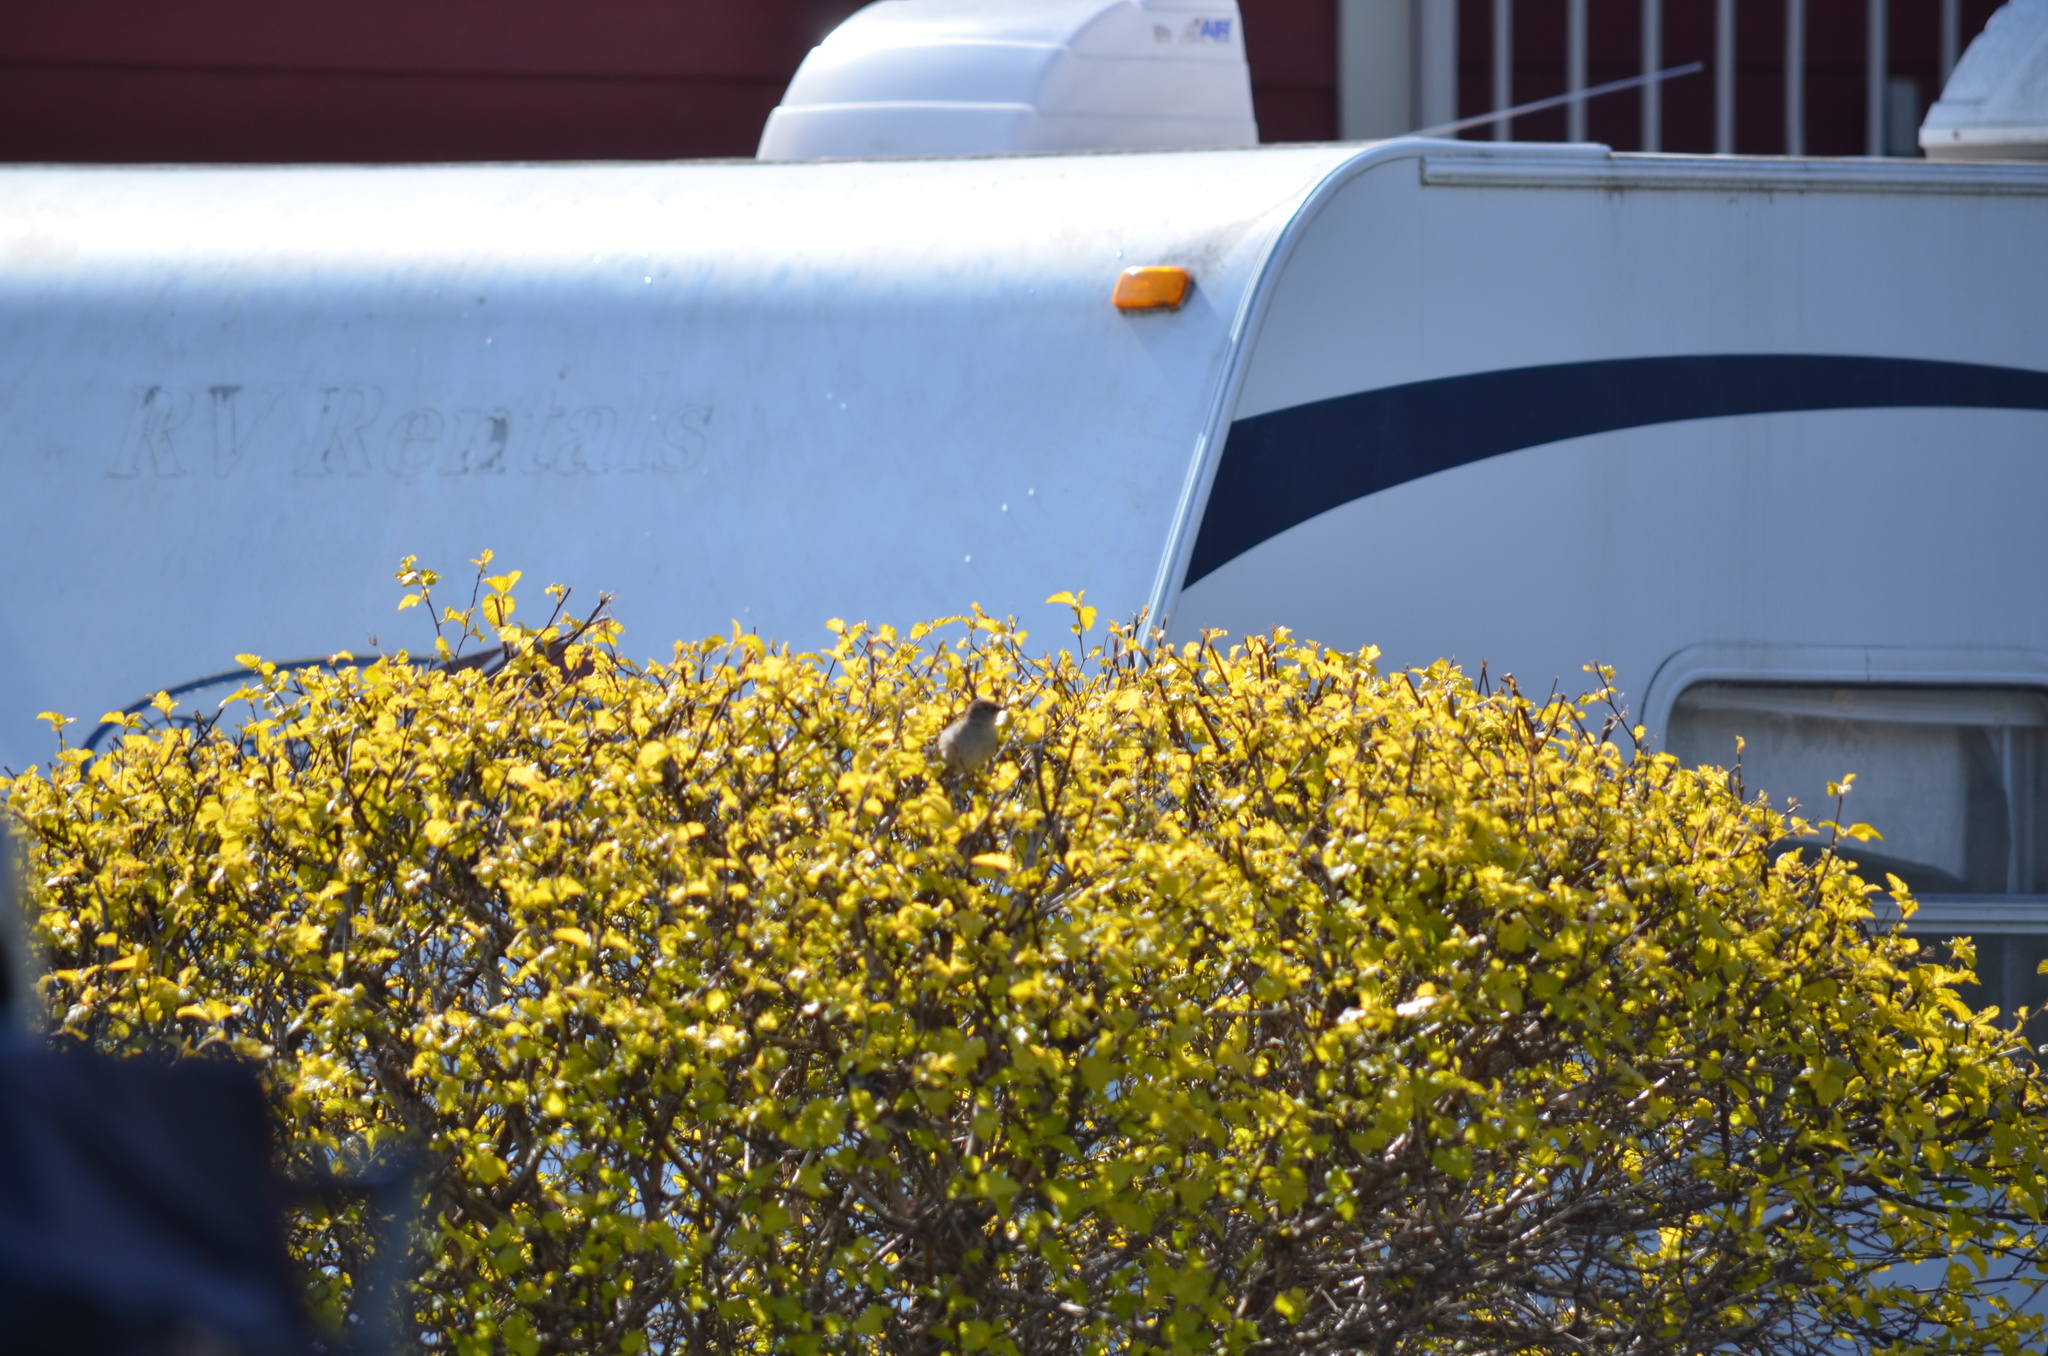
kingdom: Animalia
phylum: Chordata
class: Aves
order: Passeriformes
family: Passeridae
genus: Passer
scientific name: Passer domesticus
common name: House sparrow
